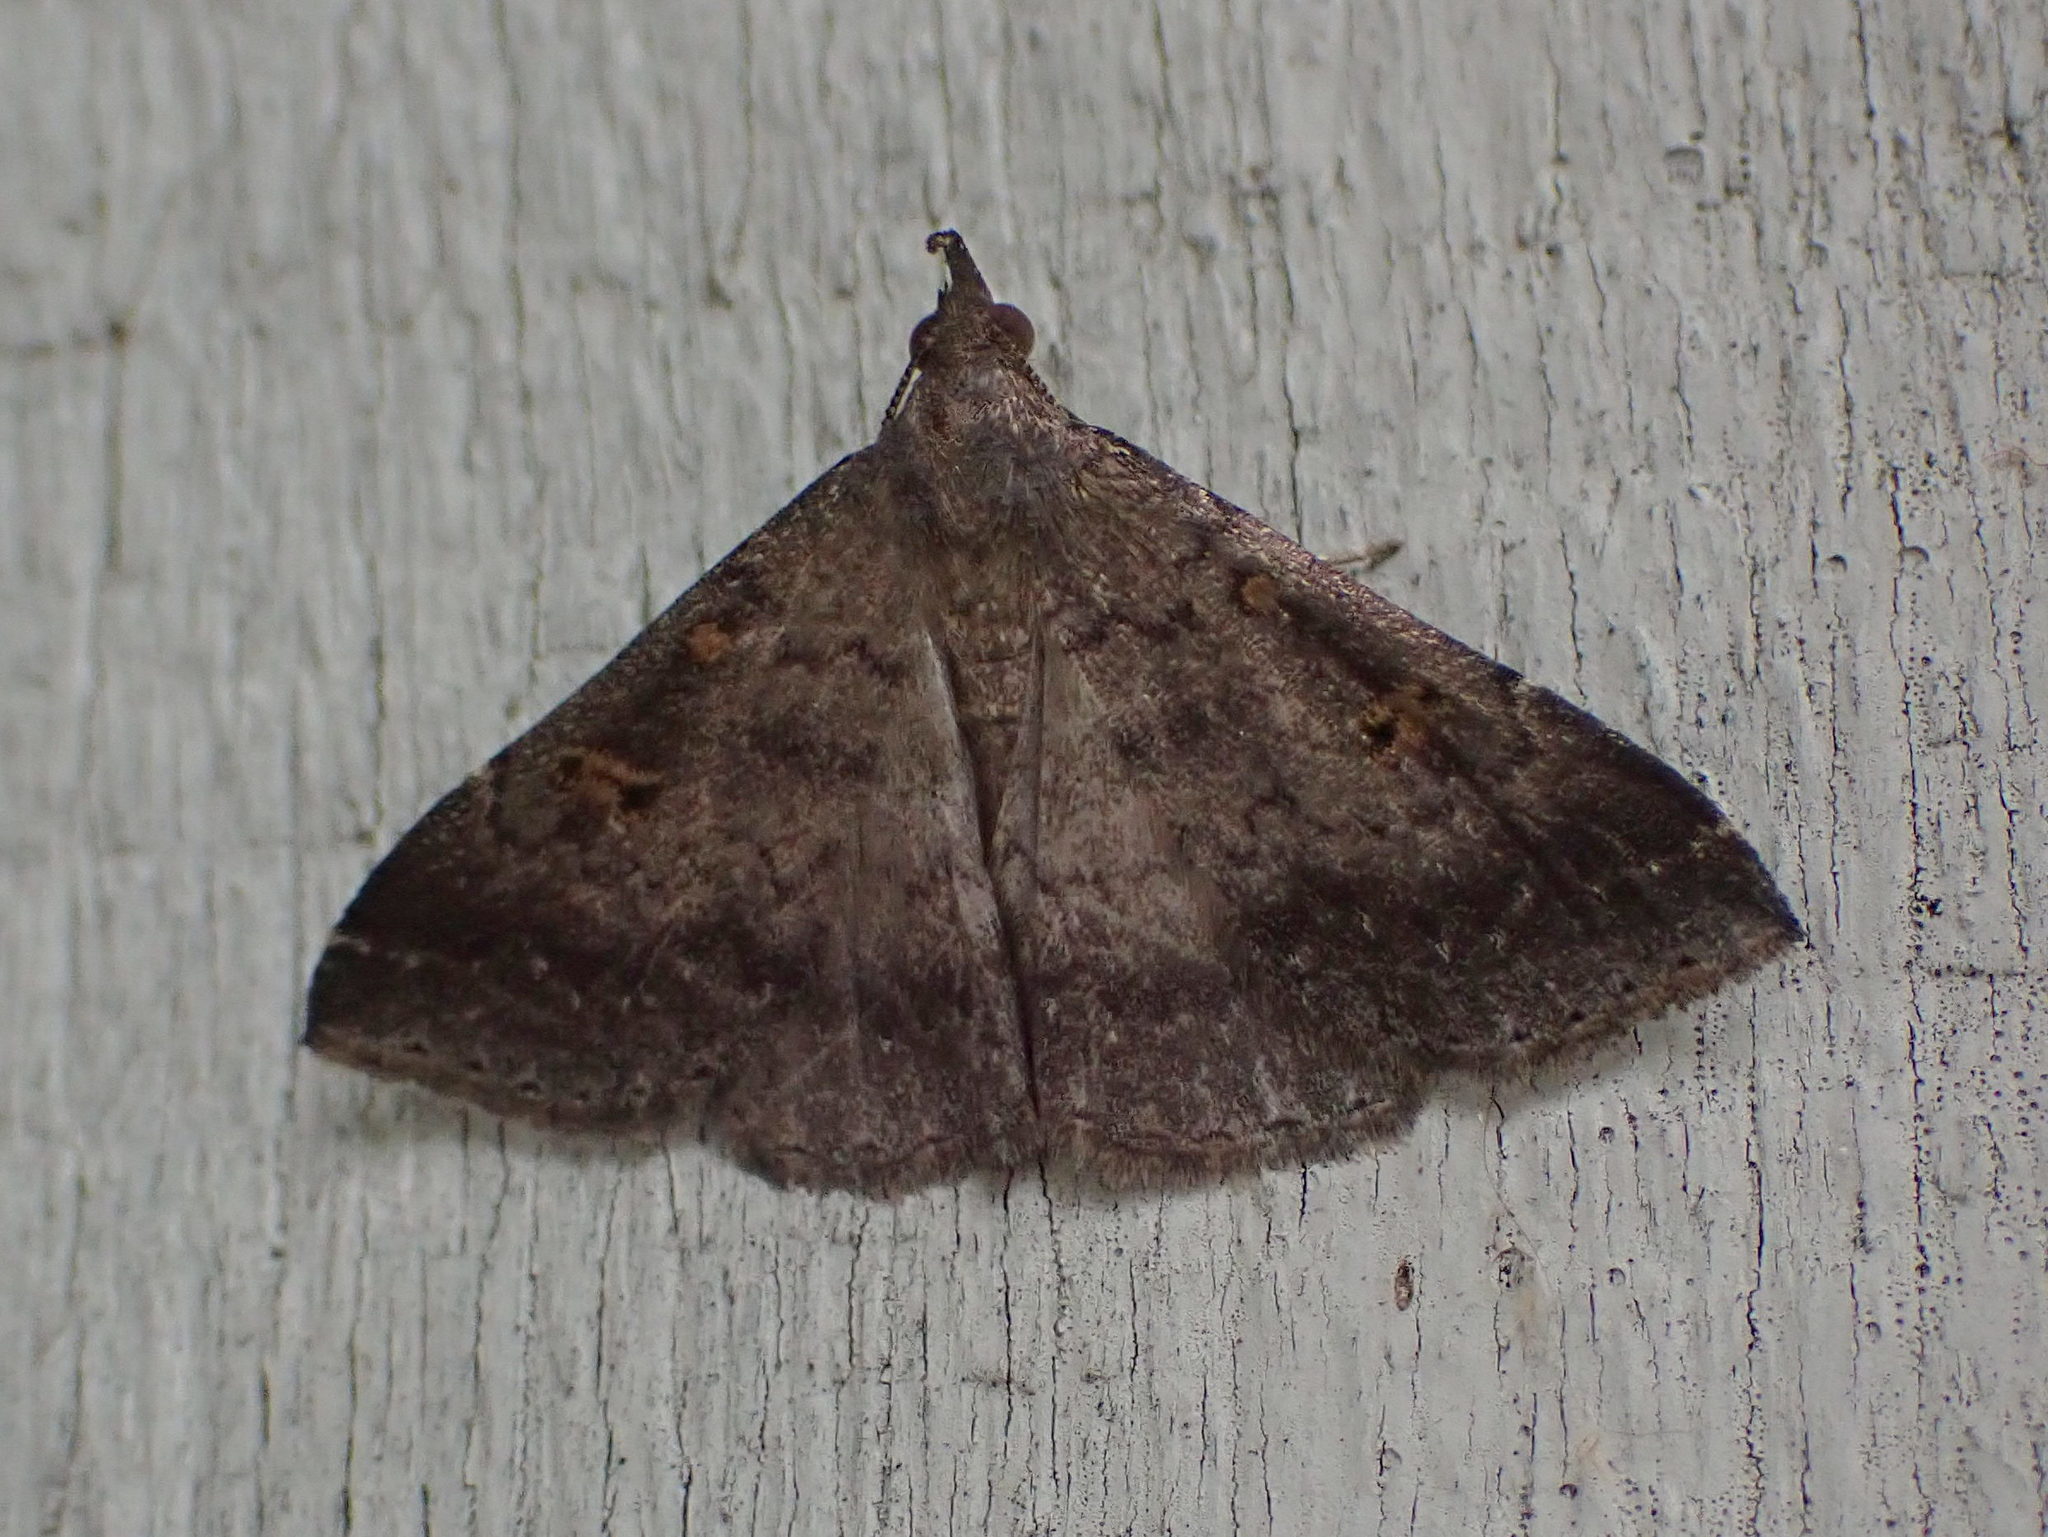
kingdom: Animalia
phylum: Arthropoda
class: Insecta
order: Lepidoptera
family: Erebidae
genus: Renia
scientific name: Renia sobrialis
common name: Sober renia moth
